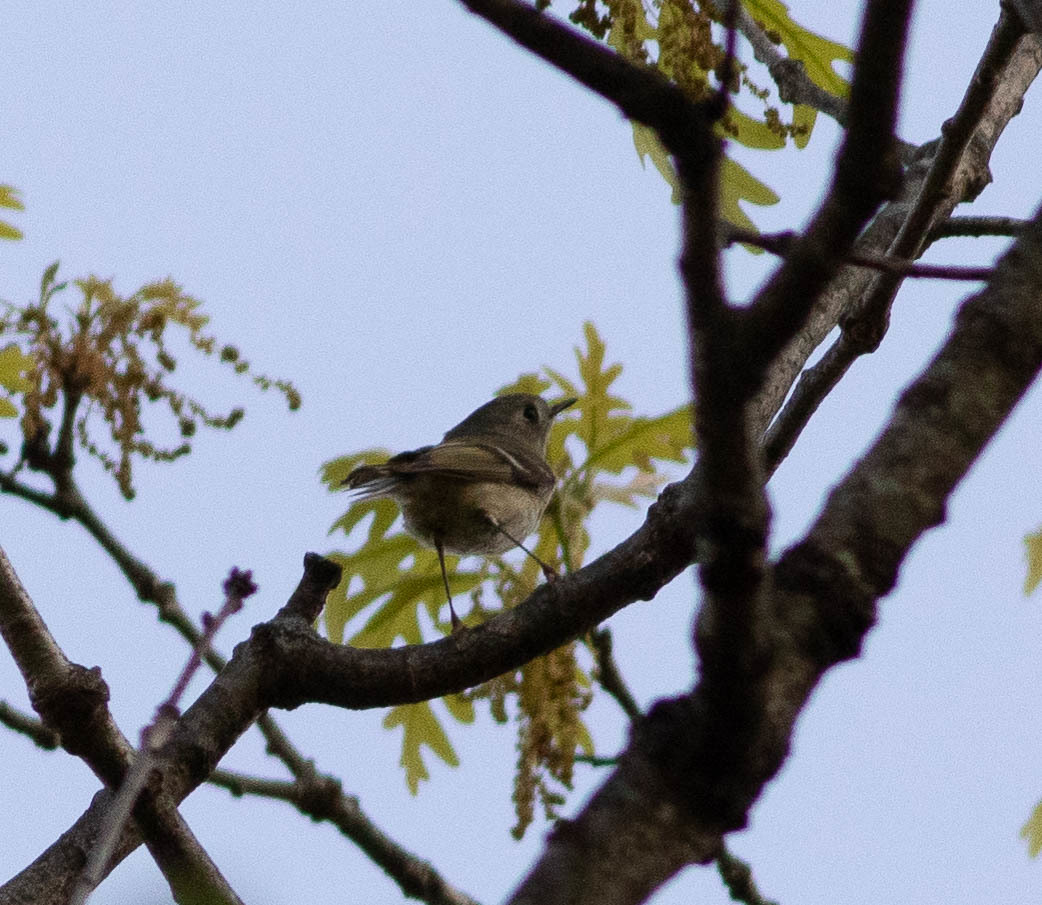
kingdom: Animalia
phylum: Chordata
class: Aves
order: Passeriformes
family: Regulidae
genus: Regulus
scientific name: Regulus calendula
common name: Ruby-crowned kinglet
